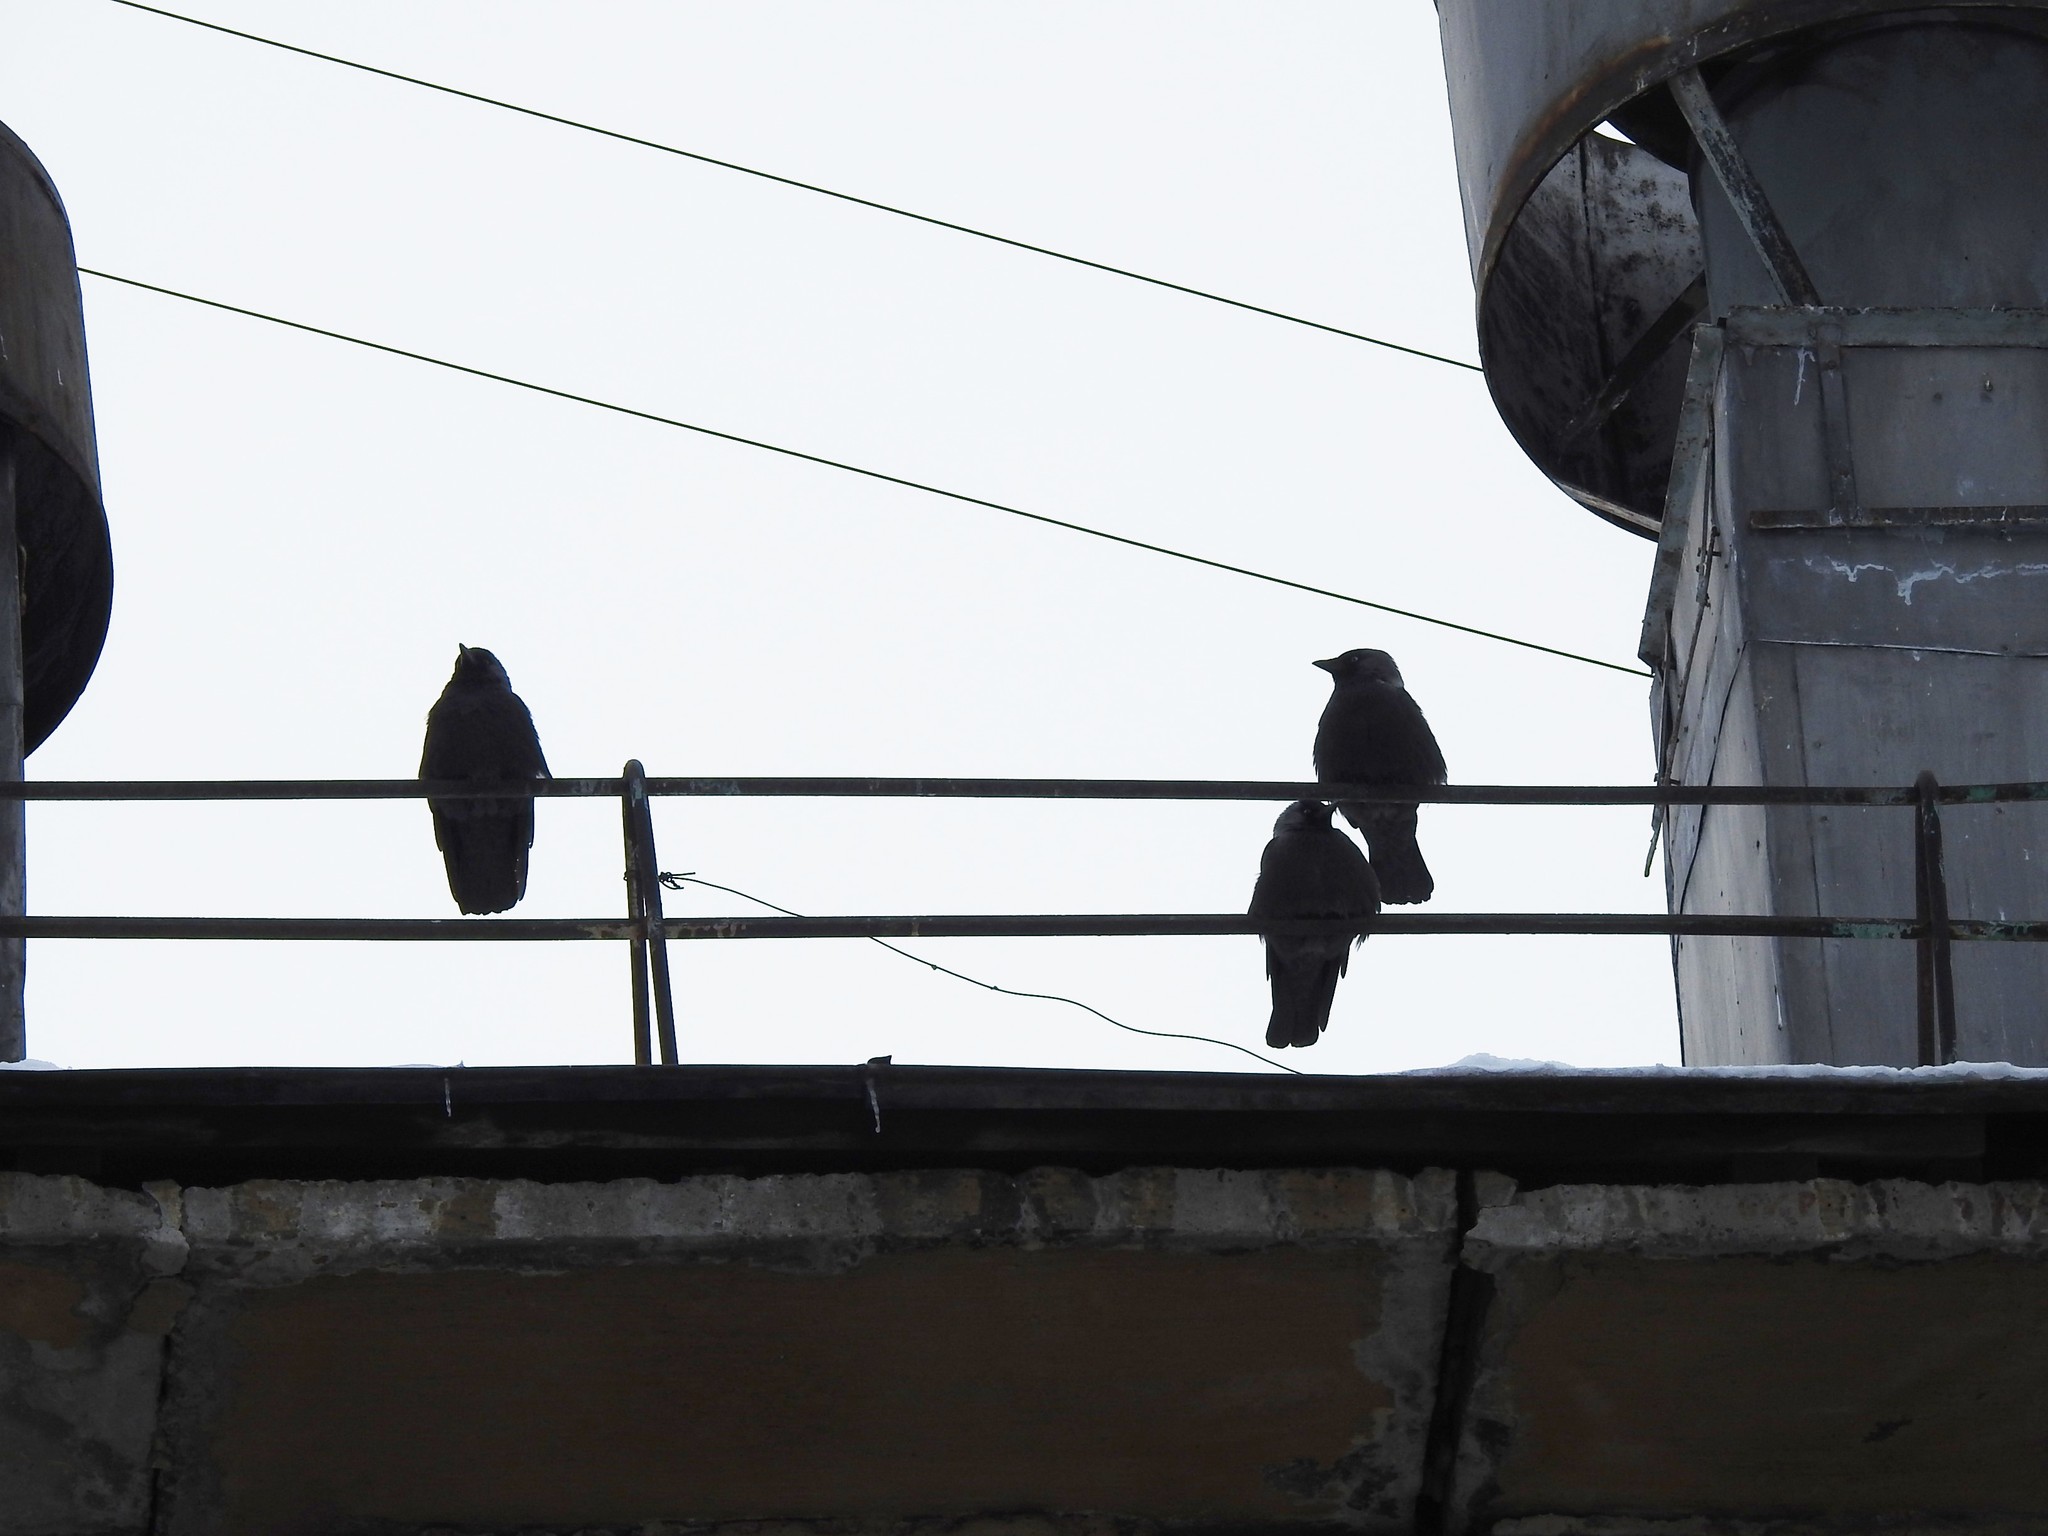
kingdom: Animalia
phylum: Chordata
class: Aves
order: Passeriformes
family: Corvidae
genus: Coloeus
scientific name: Coloeus monedula
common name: Western jackdaw
